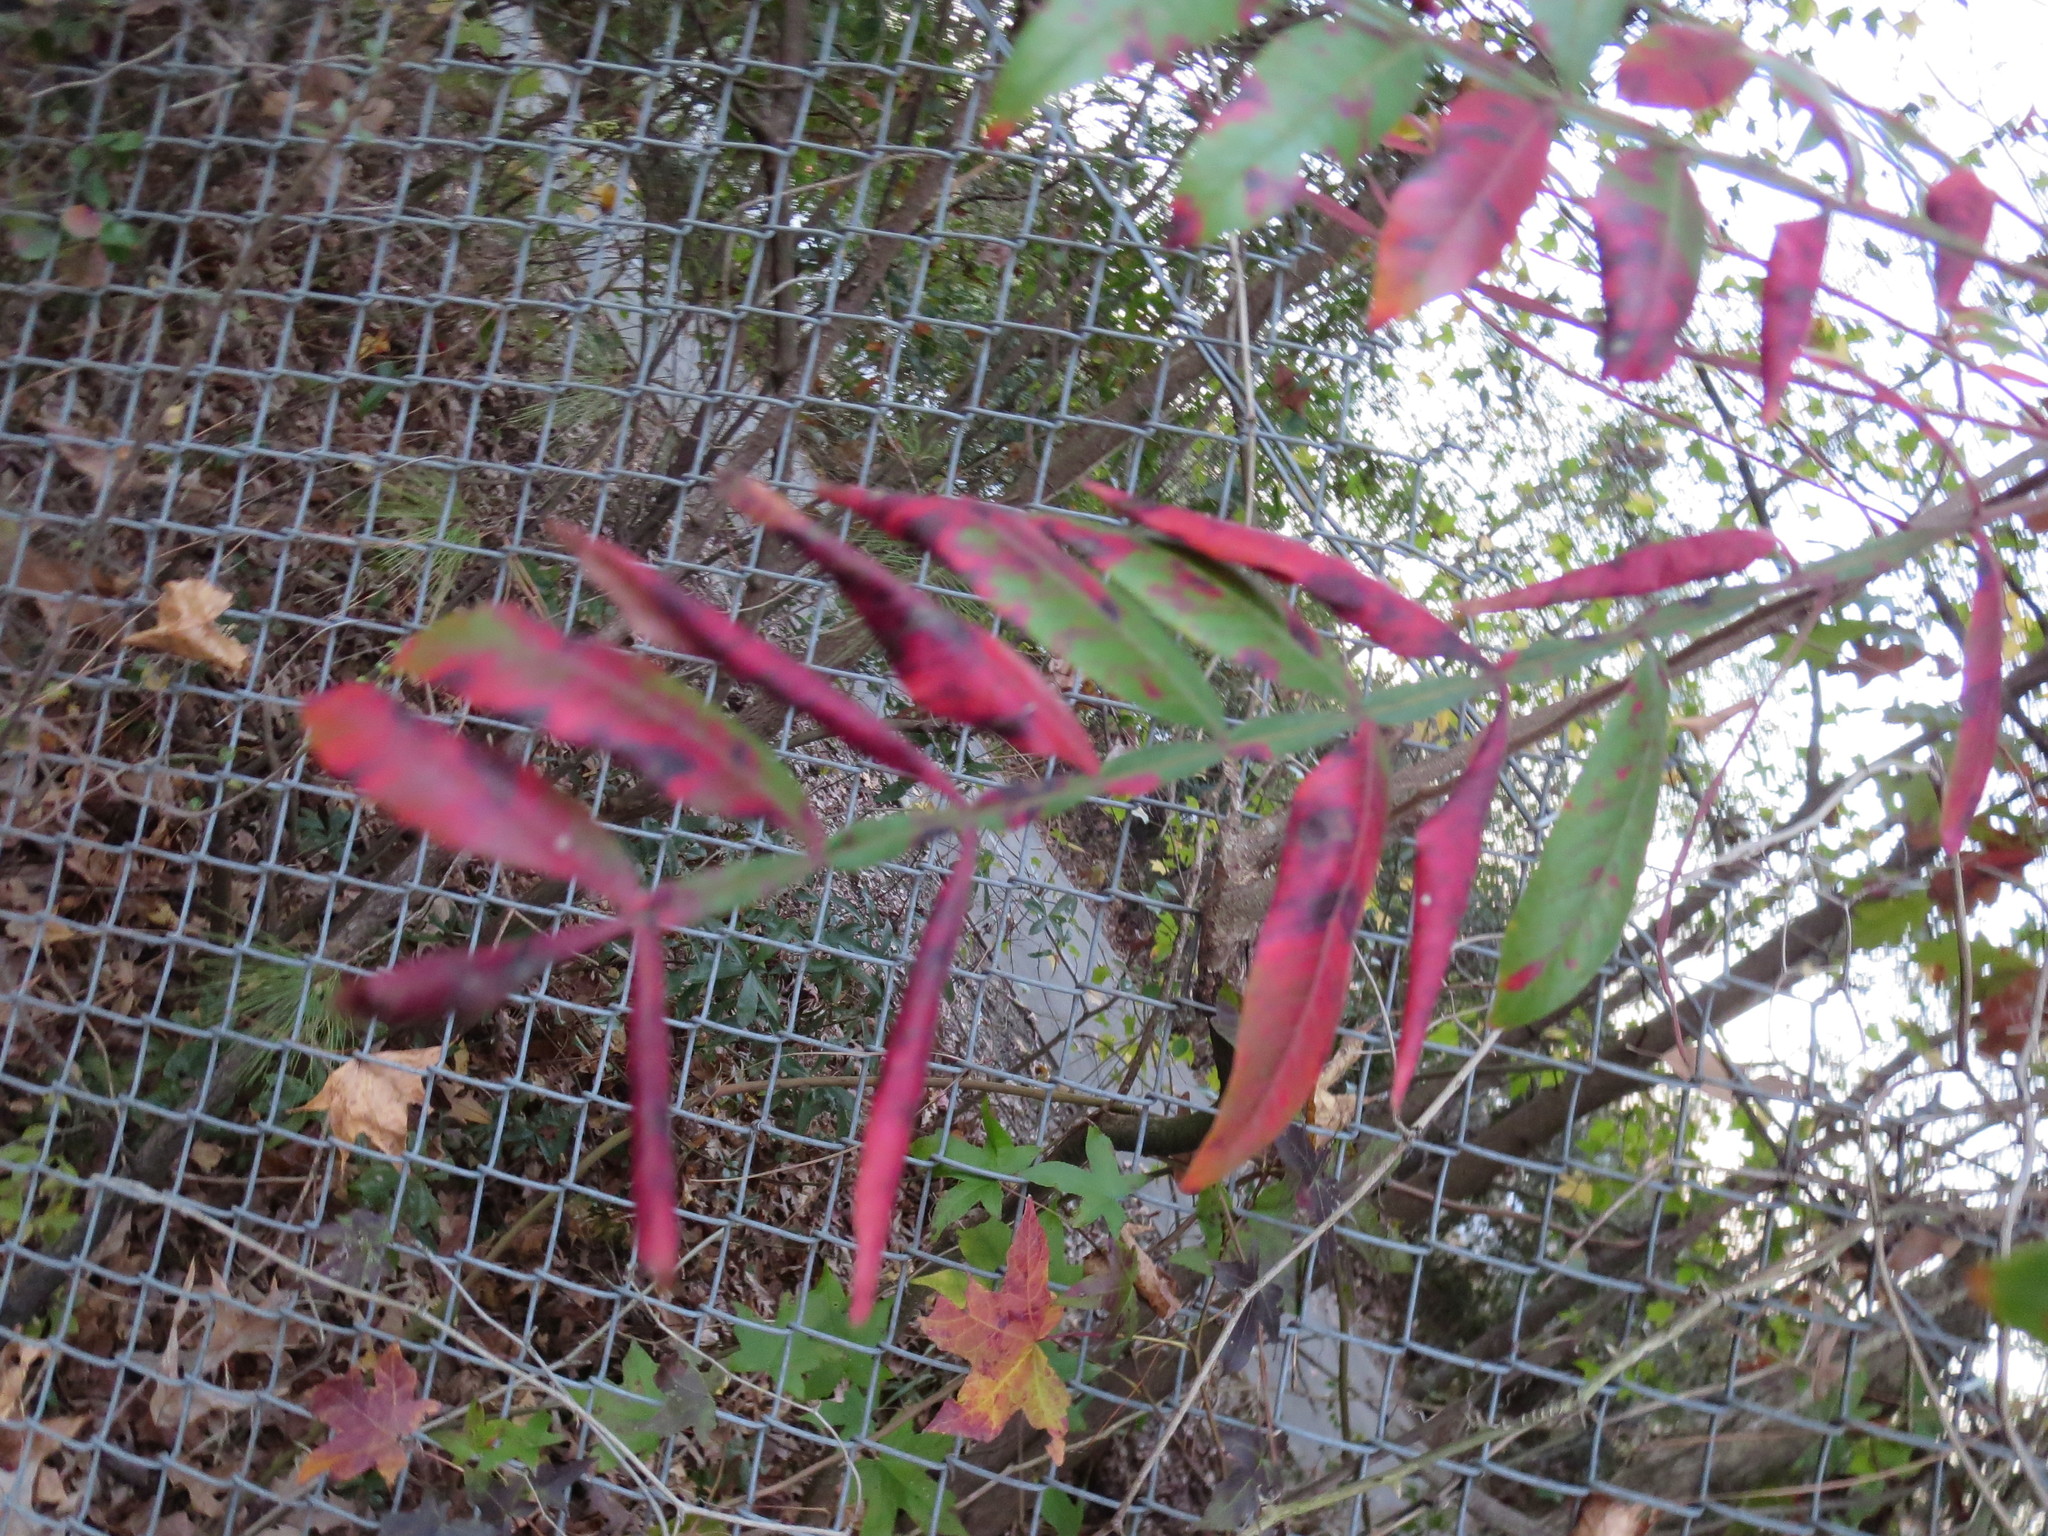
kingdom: Plantae
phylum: Tracheophyta
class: Magnoliopsida
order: Sapindales
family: Anacardiaceae
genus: Rhus
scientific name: Rhus copallina
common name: Shining sumac
